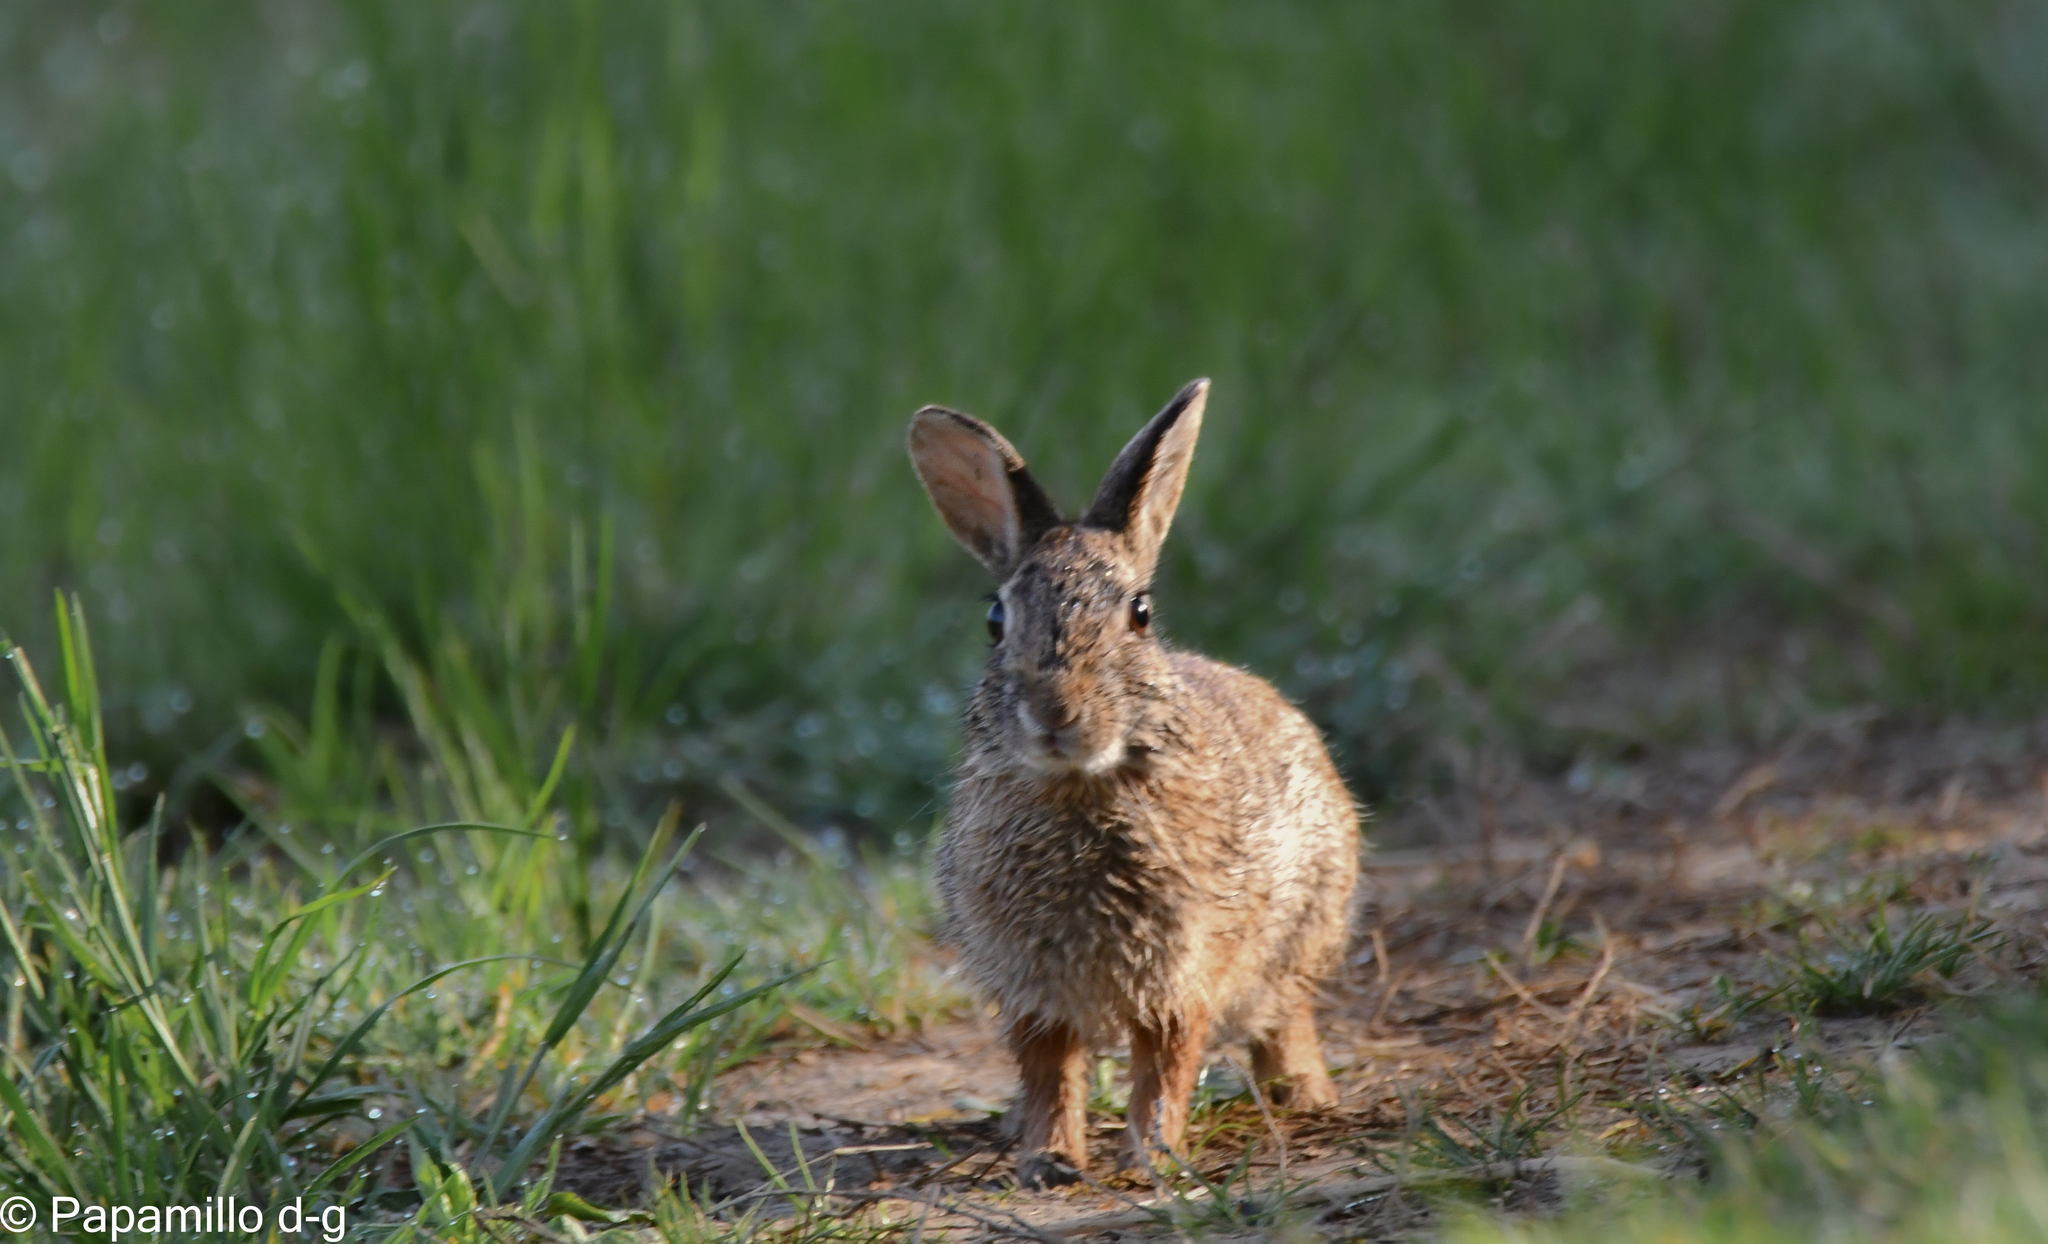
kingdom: Animalia
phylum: Chordata
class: Mammalia
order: Lagomorpha
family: Leporidae
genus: Sylvilagus
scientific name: Sylvilagus floridanus
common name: Eastern cottontail
